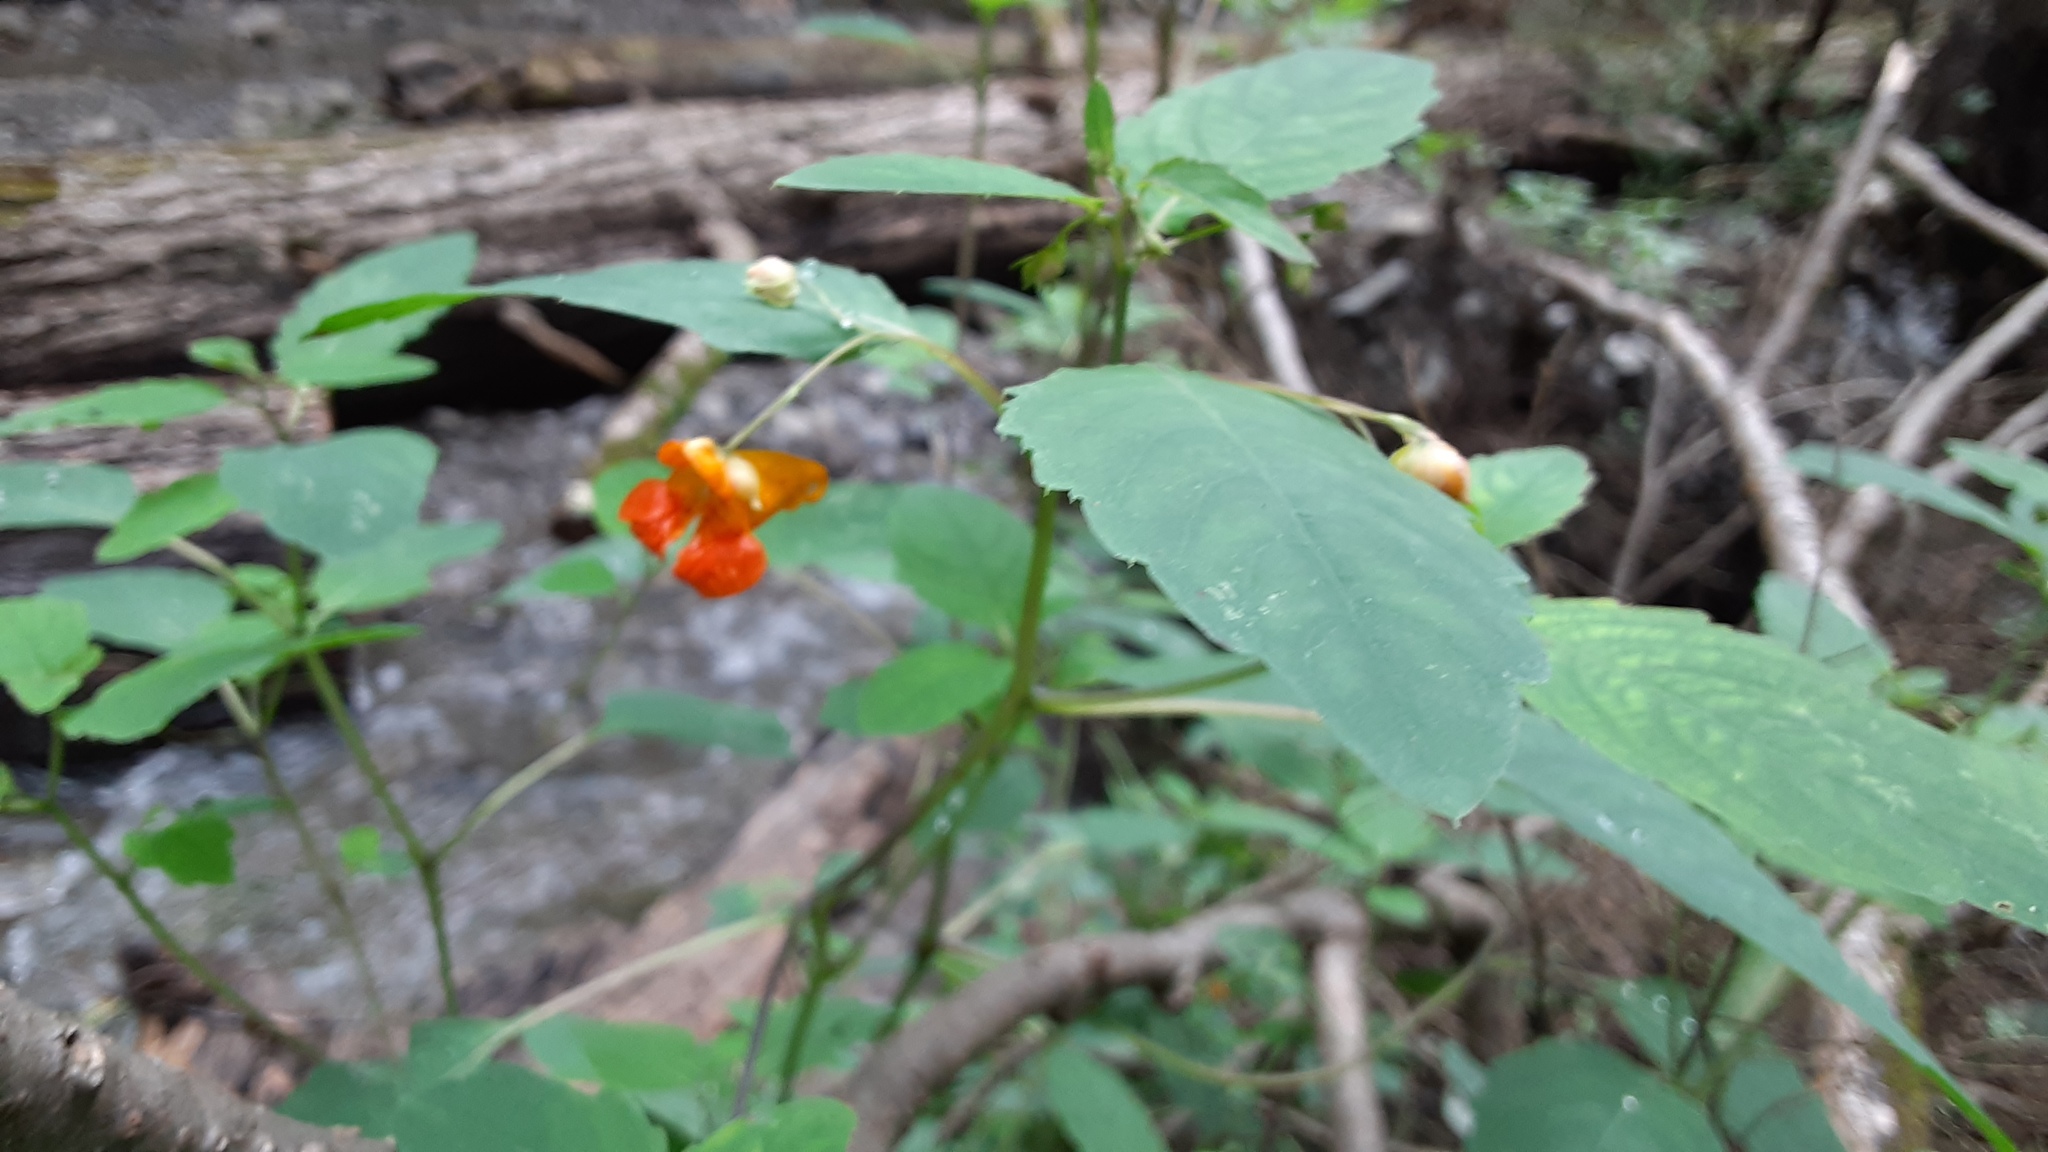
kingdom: Plantae
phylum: Tracheophyta
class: Magnoliopsida
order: Ericales
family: Balsaminaceae
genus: Impatiens
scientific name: Impatiens capensis
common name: Orange balsam
